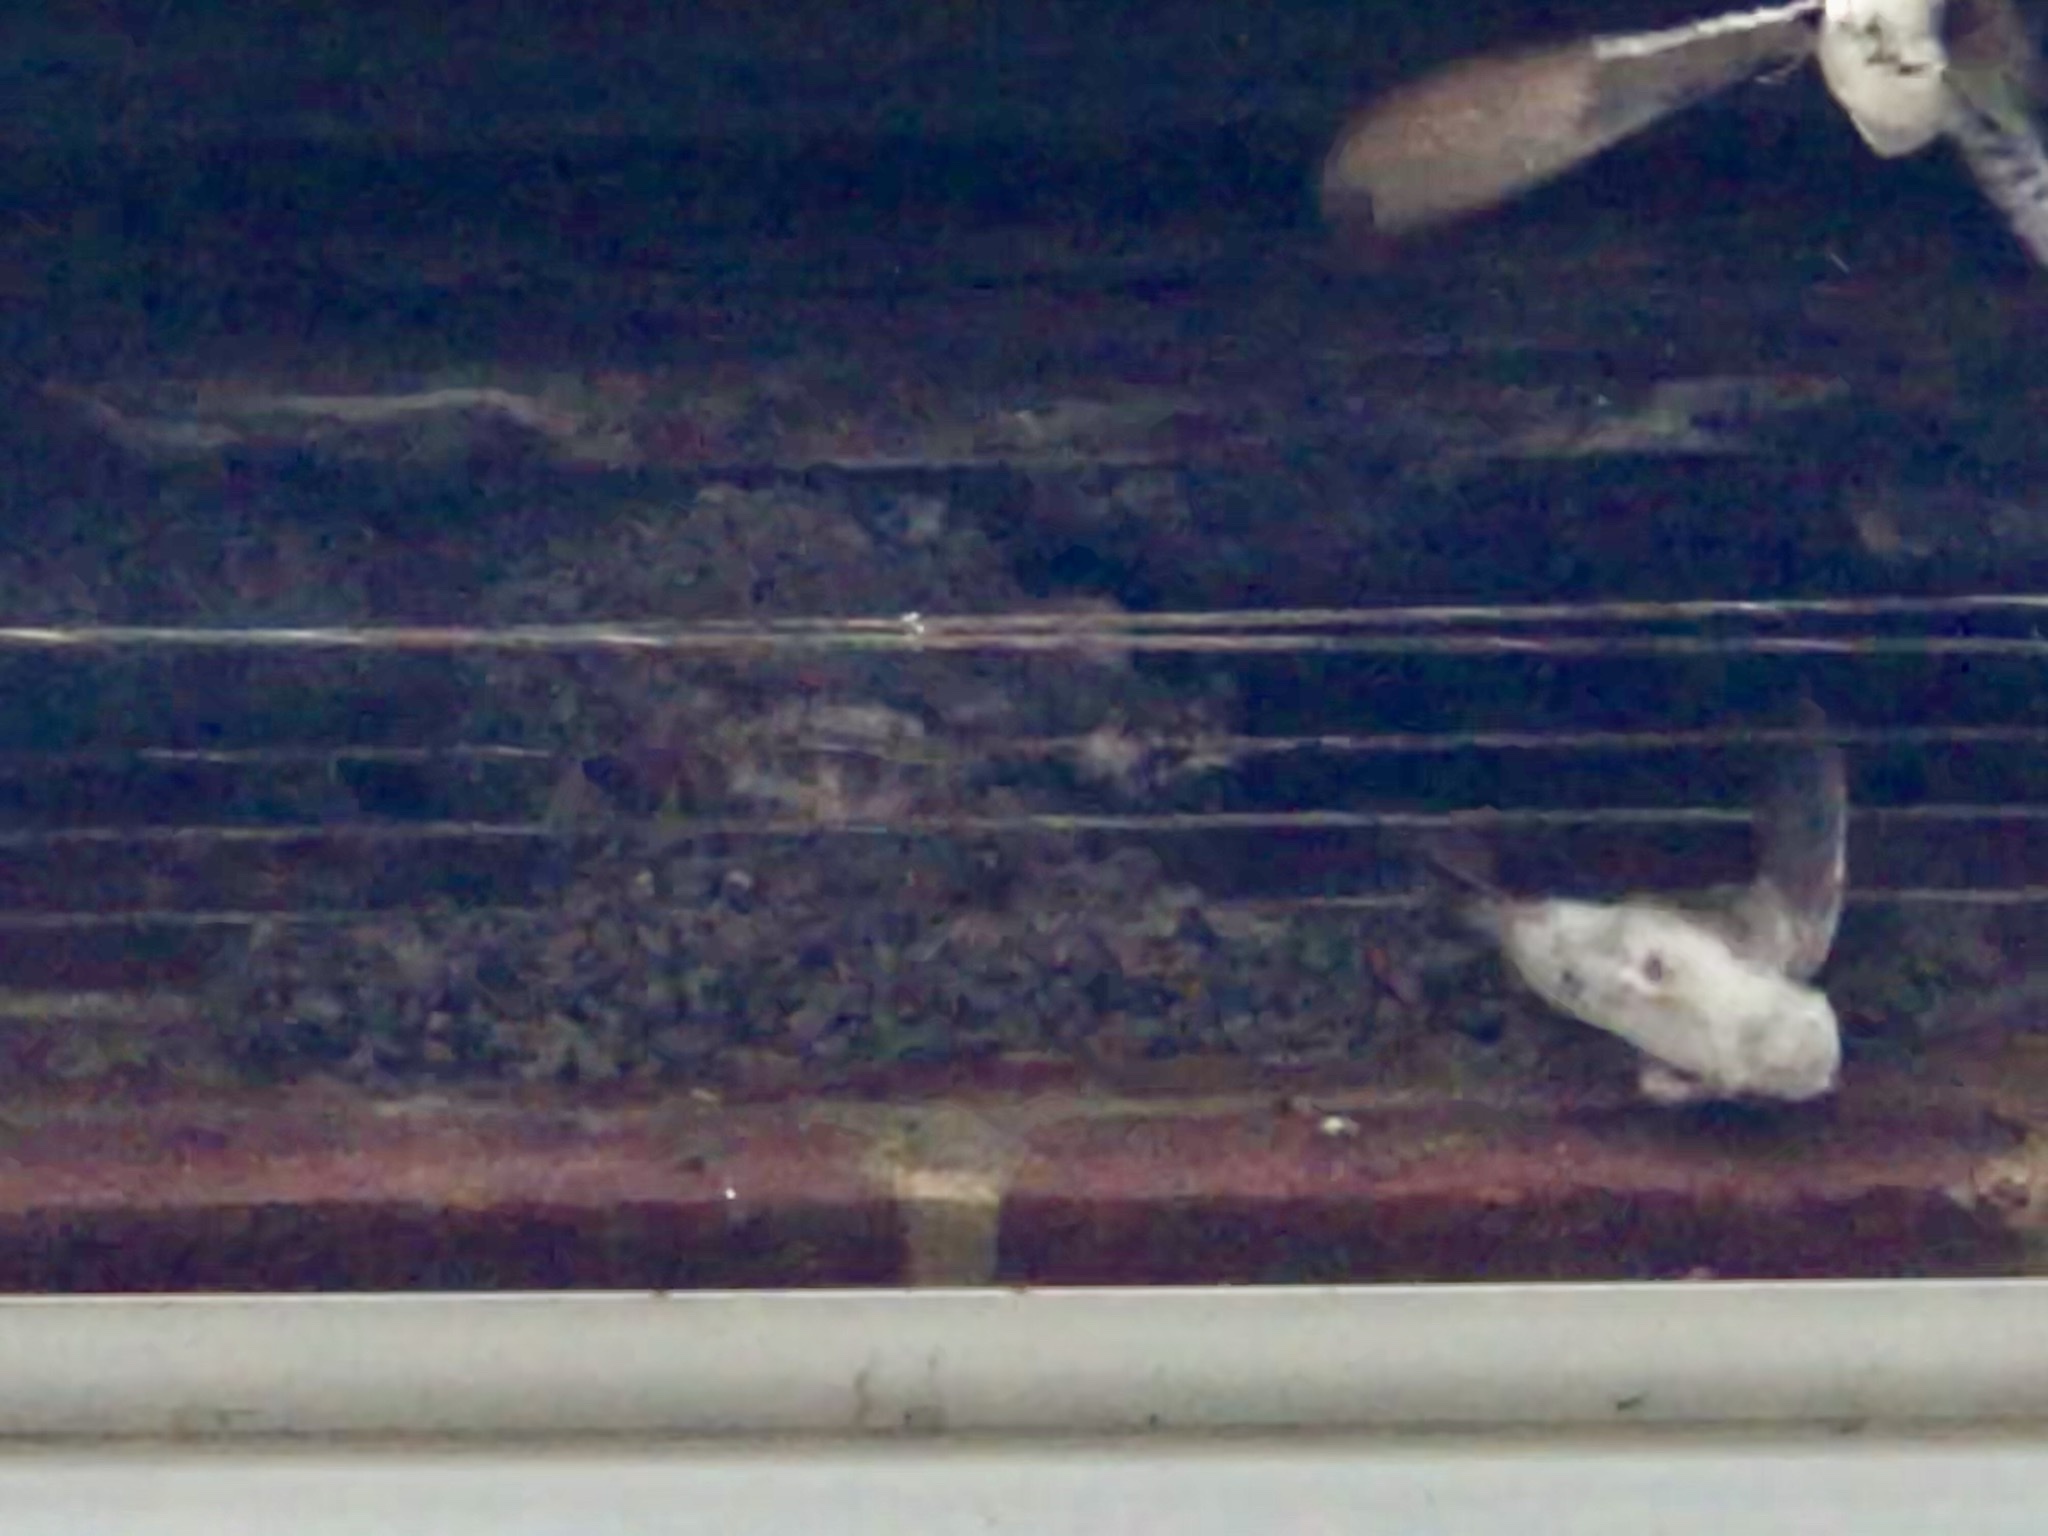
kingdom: Animalia
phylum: Chordata
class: Aves
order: Passeriformes
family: Hirundinidae
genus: Delichon
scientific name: Delichon urbicum
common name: Common house martin
